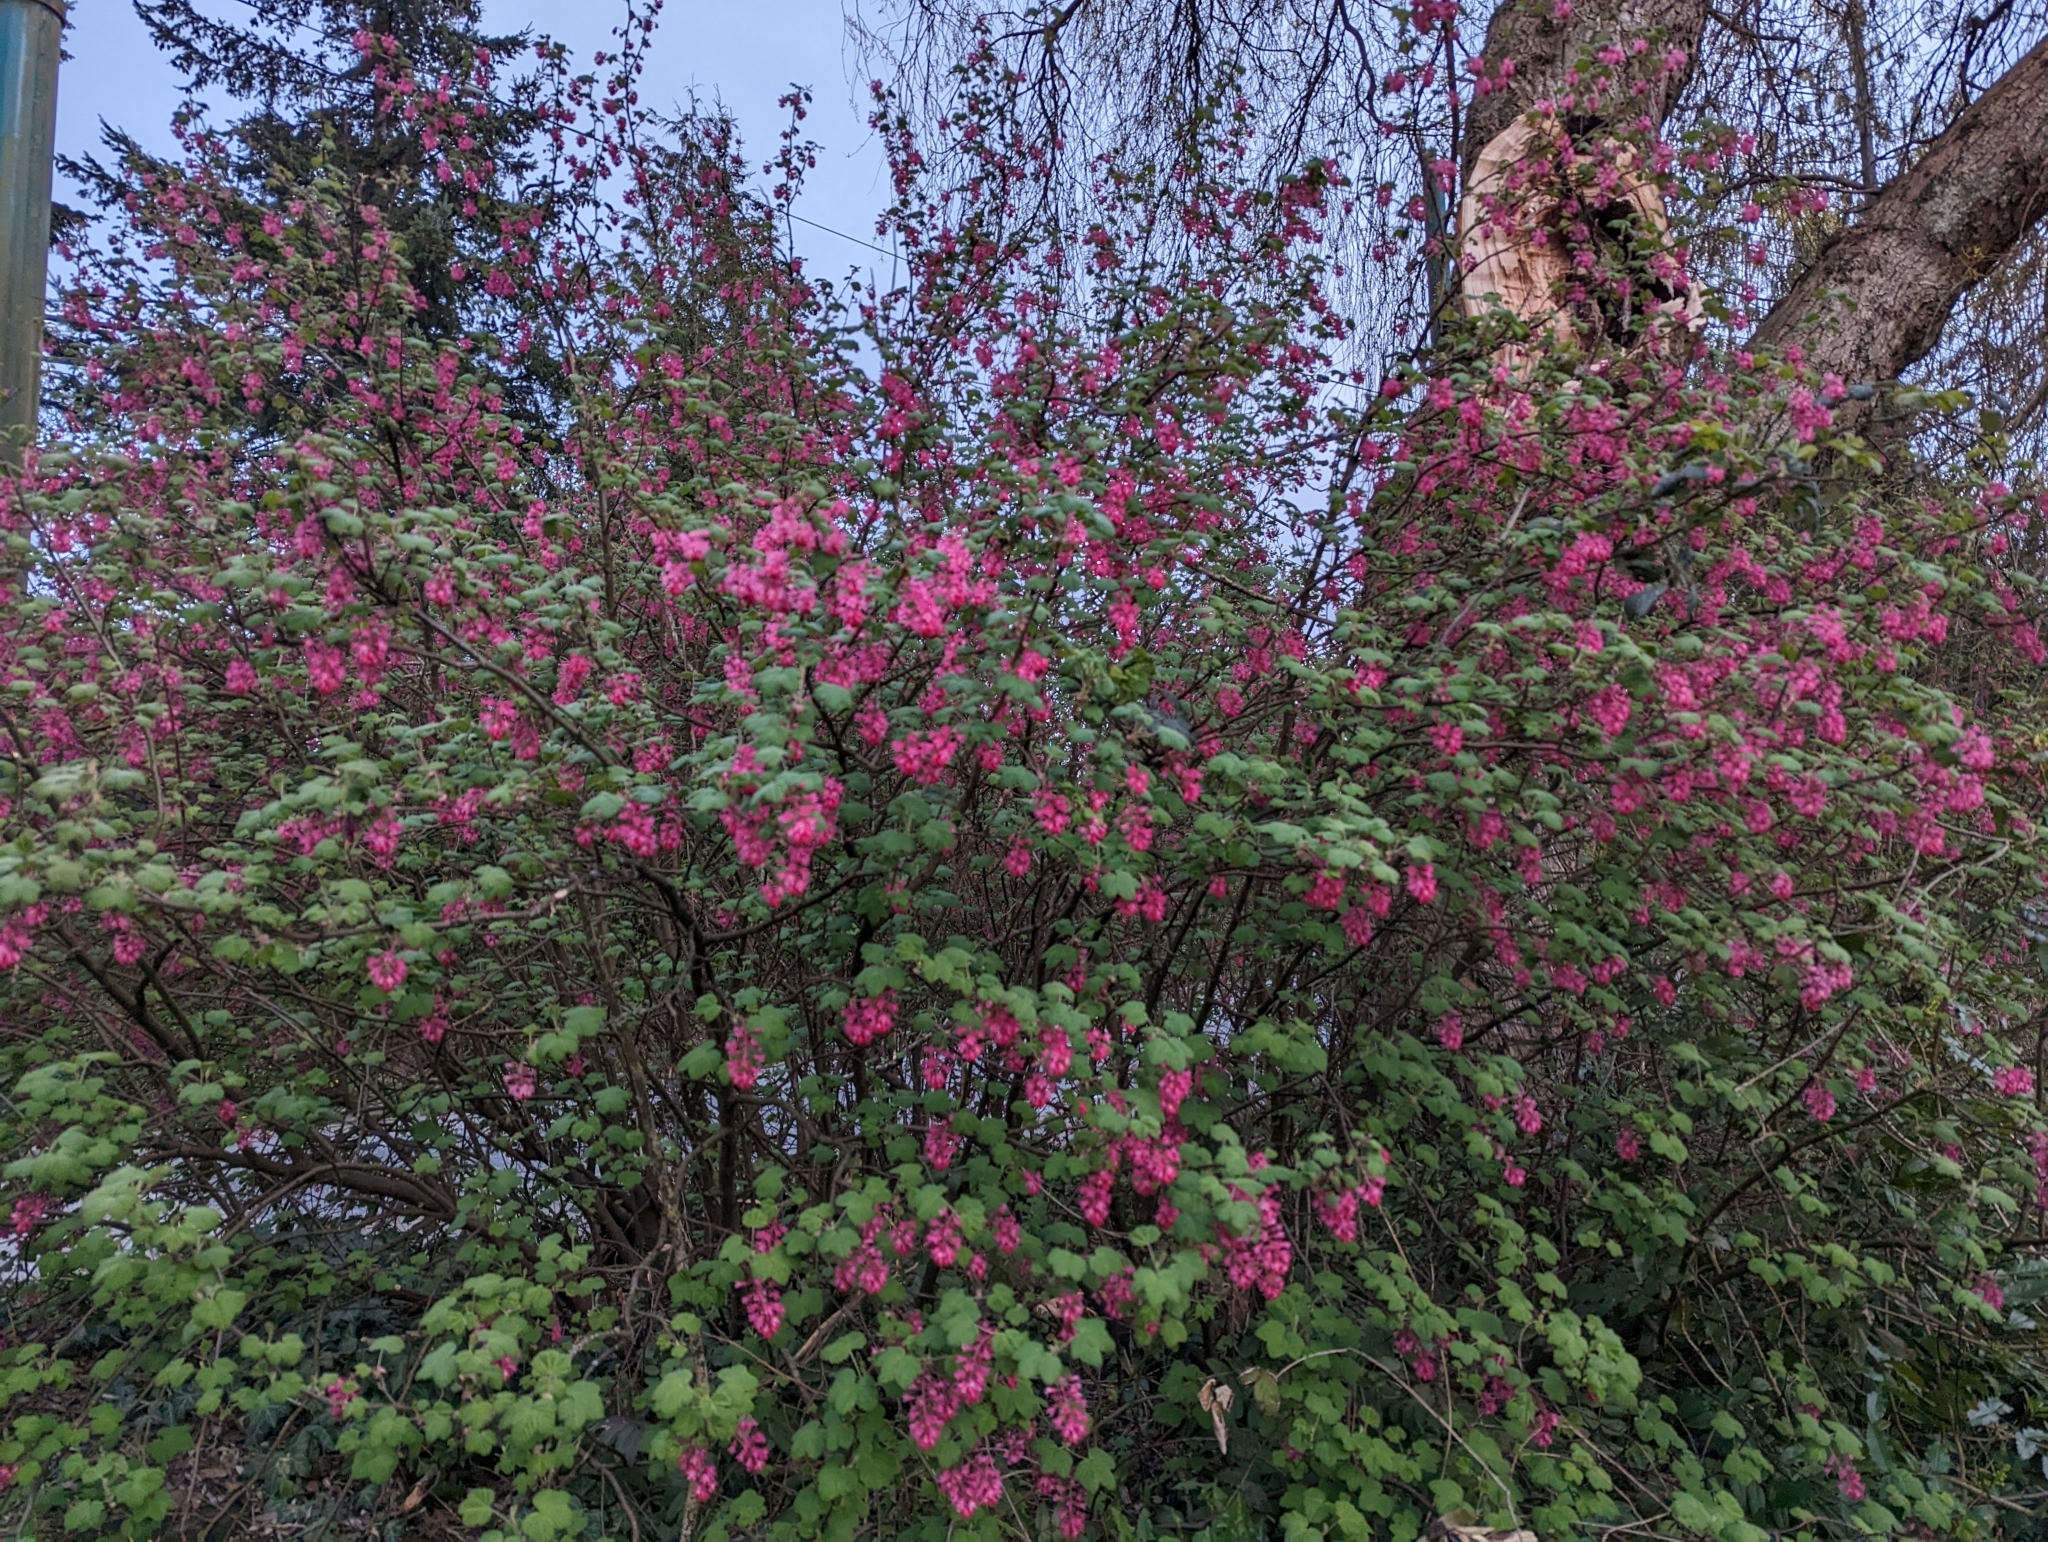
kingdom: Plantae
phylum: Tracheophyta
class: Magnoliopsida
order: Saxifragales
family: Grossulariaceae
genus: Ribes
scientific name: Ribes sanguineum
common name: Flowering currant
